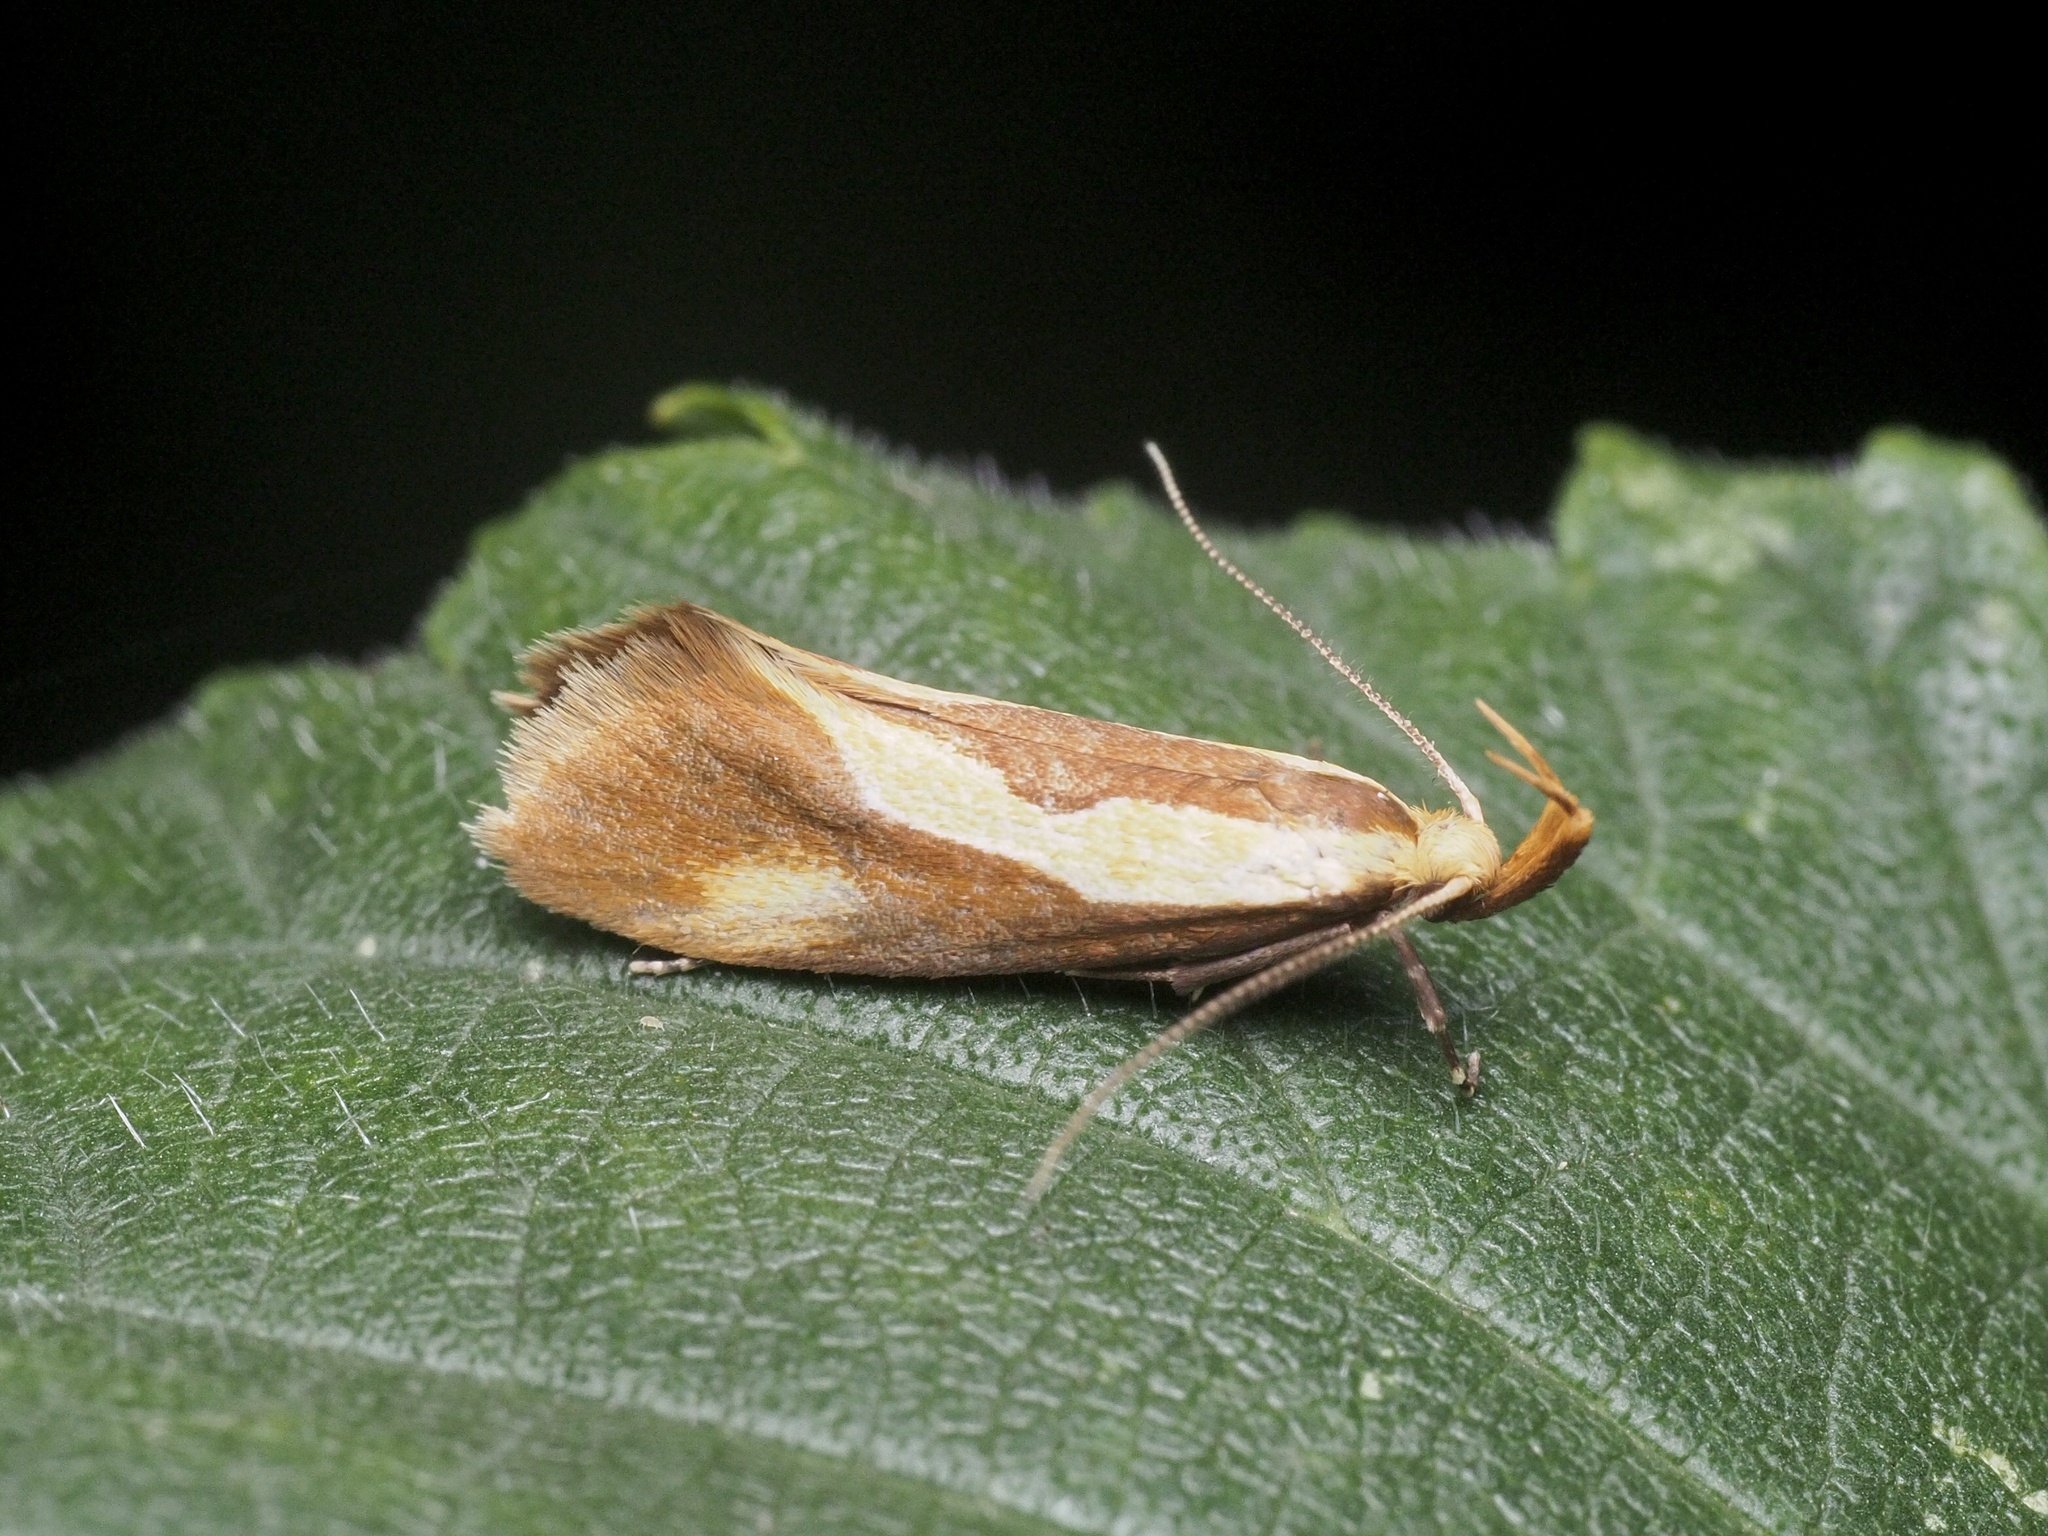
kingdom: Animalia
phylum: Arthropoda
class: Insecta
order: Lepidoptera
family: Oecophoridae
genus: Harpella
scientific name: Harpella forficella
